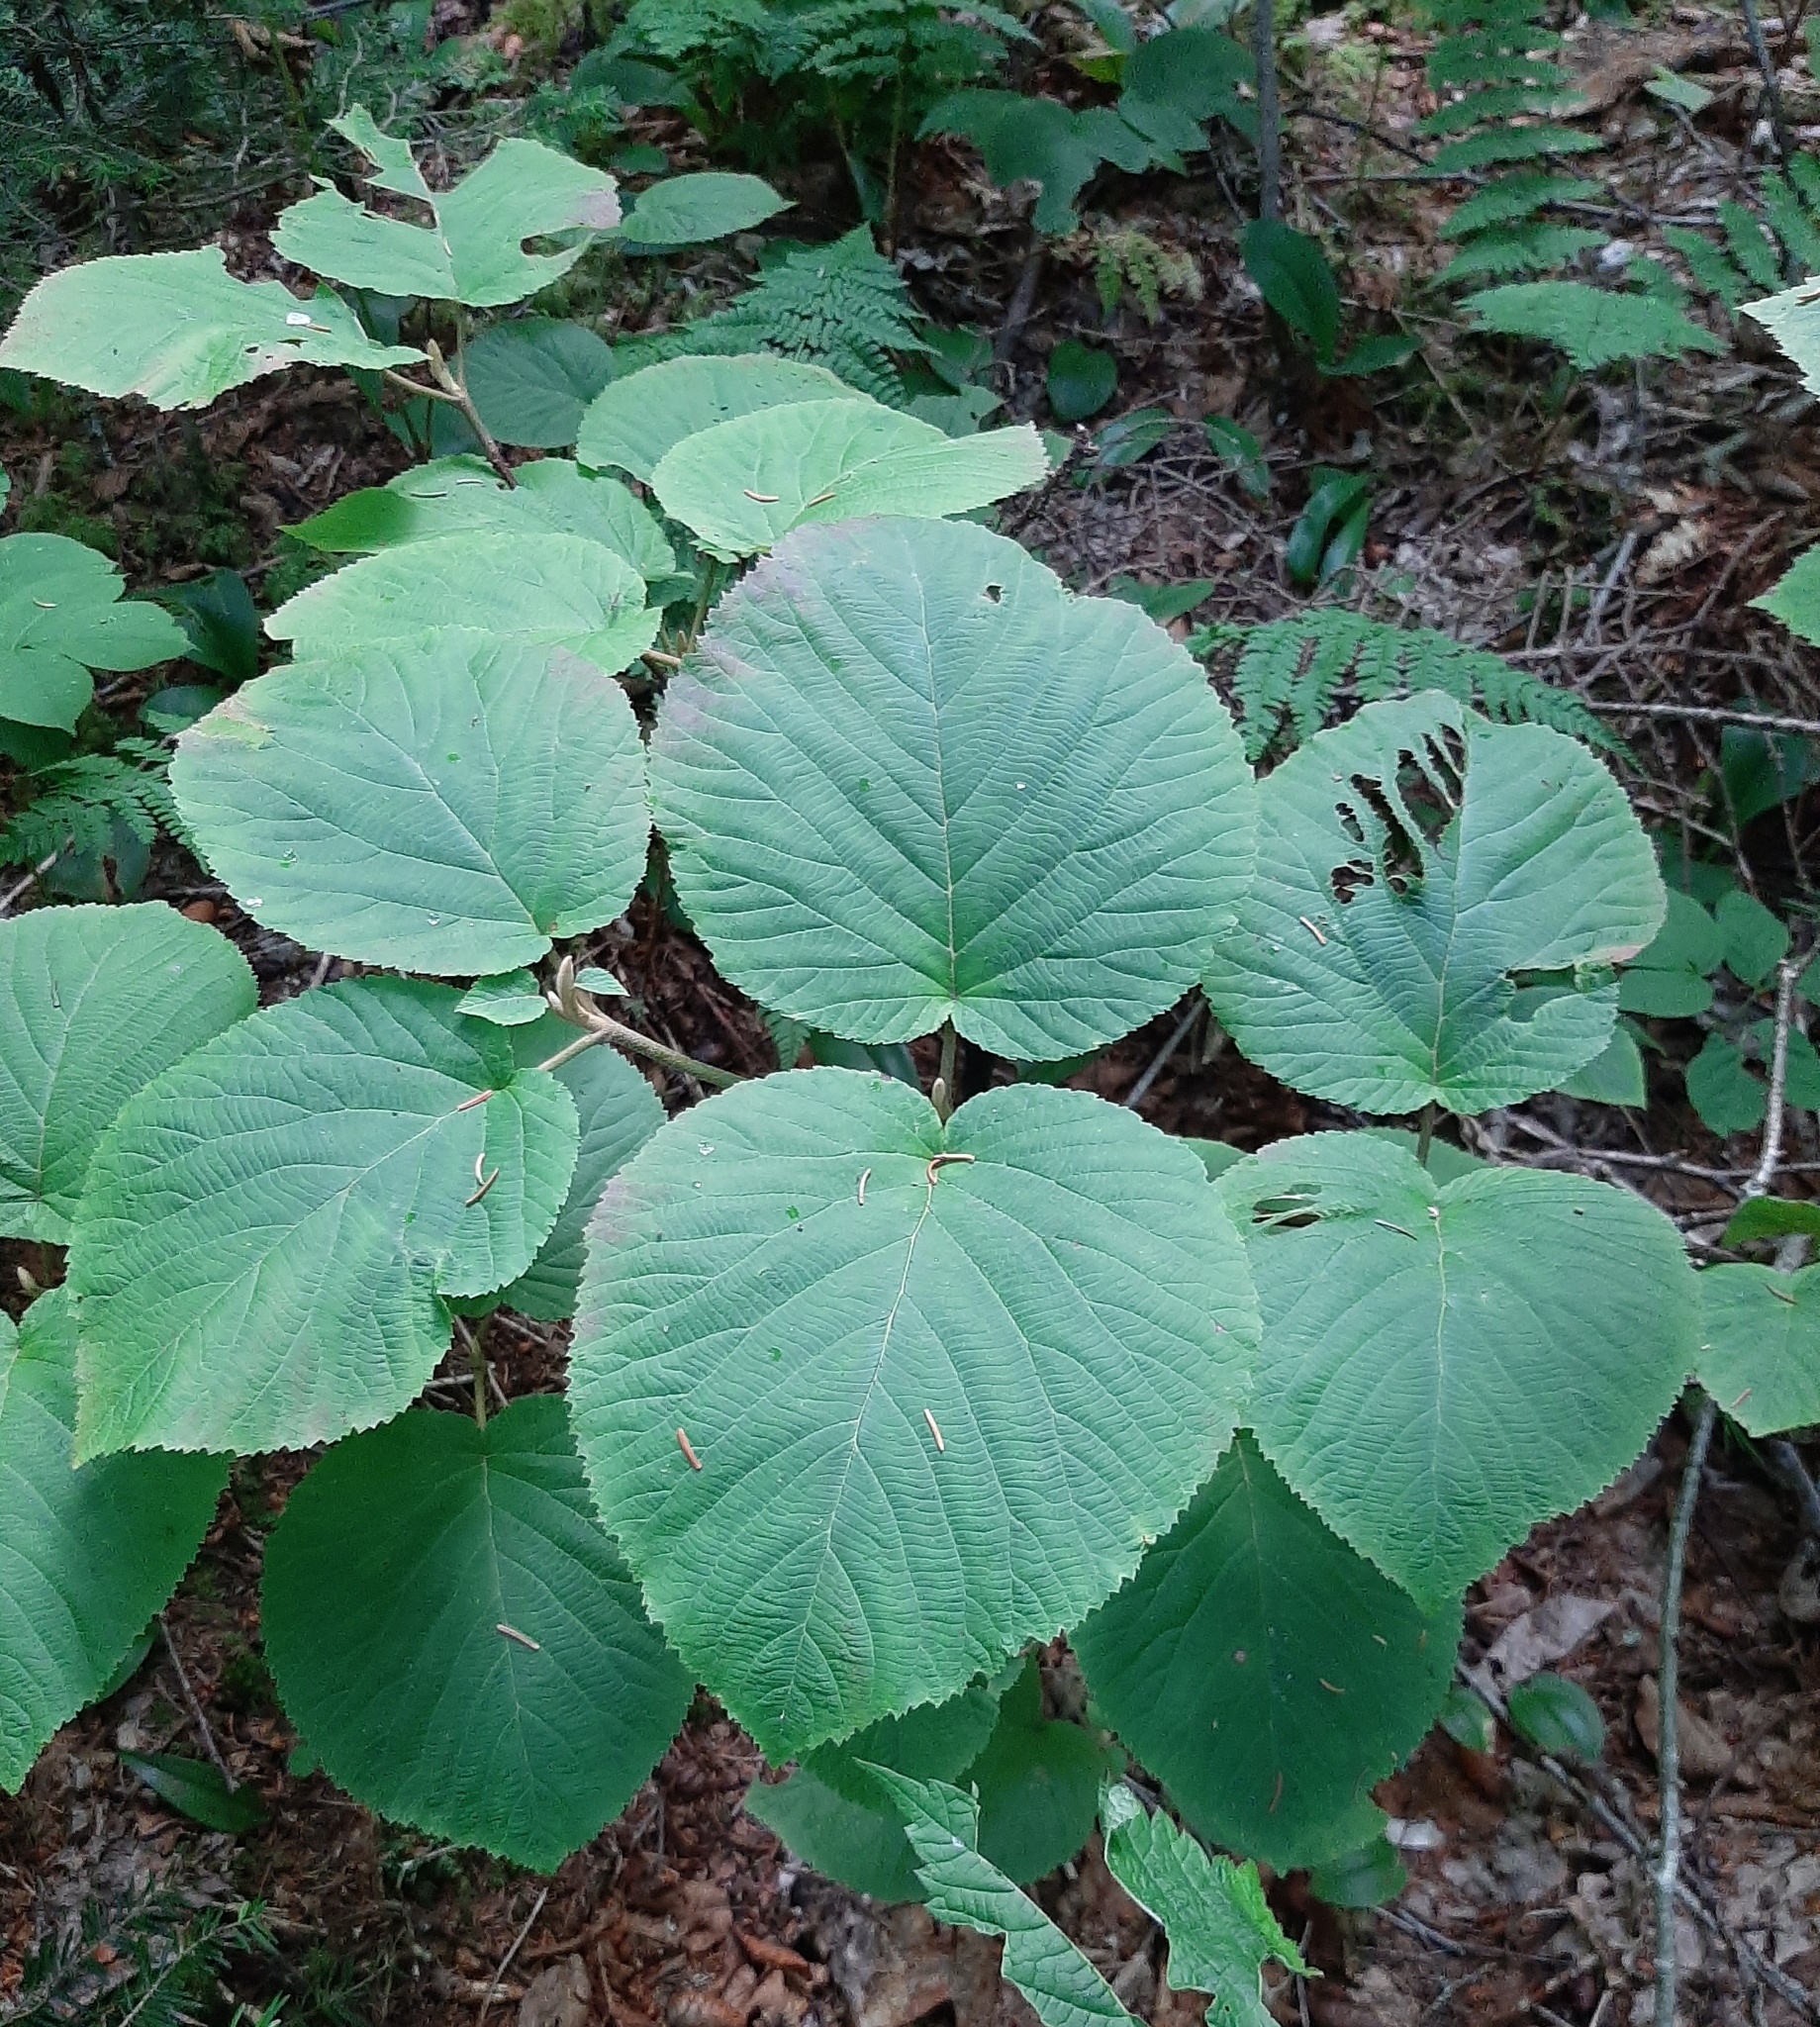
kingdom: Plantae
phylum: Tracheophyta
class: Magnoliopsida
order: Dipsacales
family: Viburnaceae
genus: Viburnum
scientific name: Viburnum lantanoides
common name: Hobblebush
